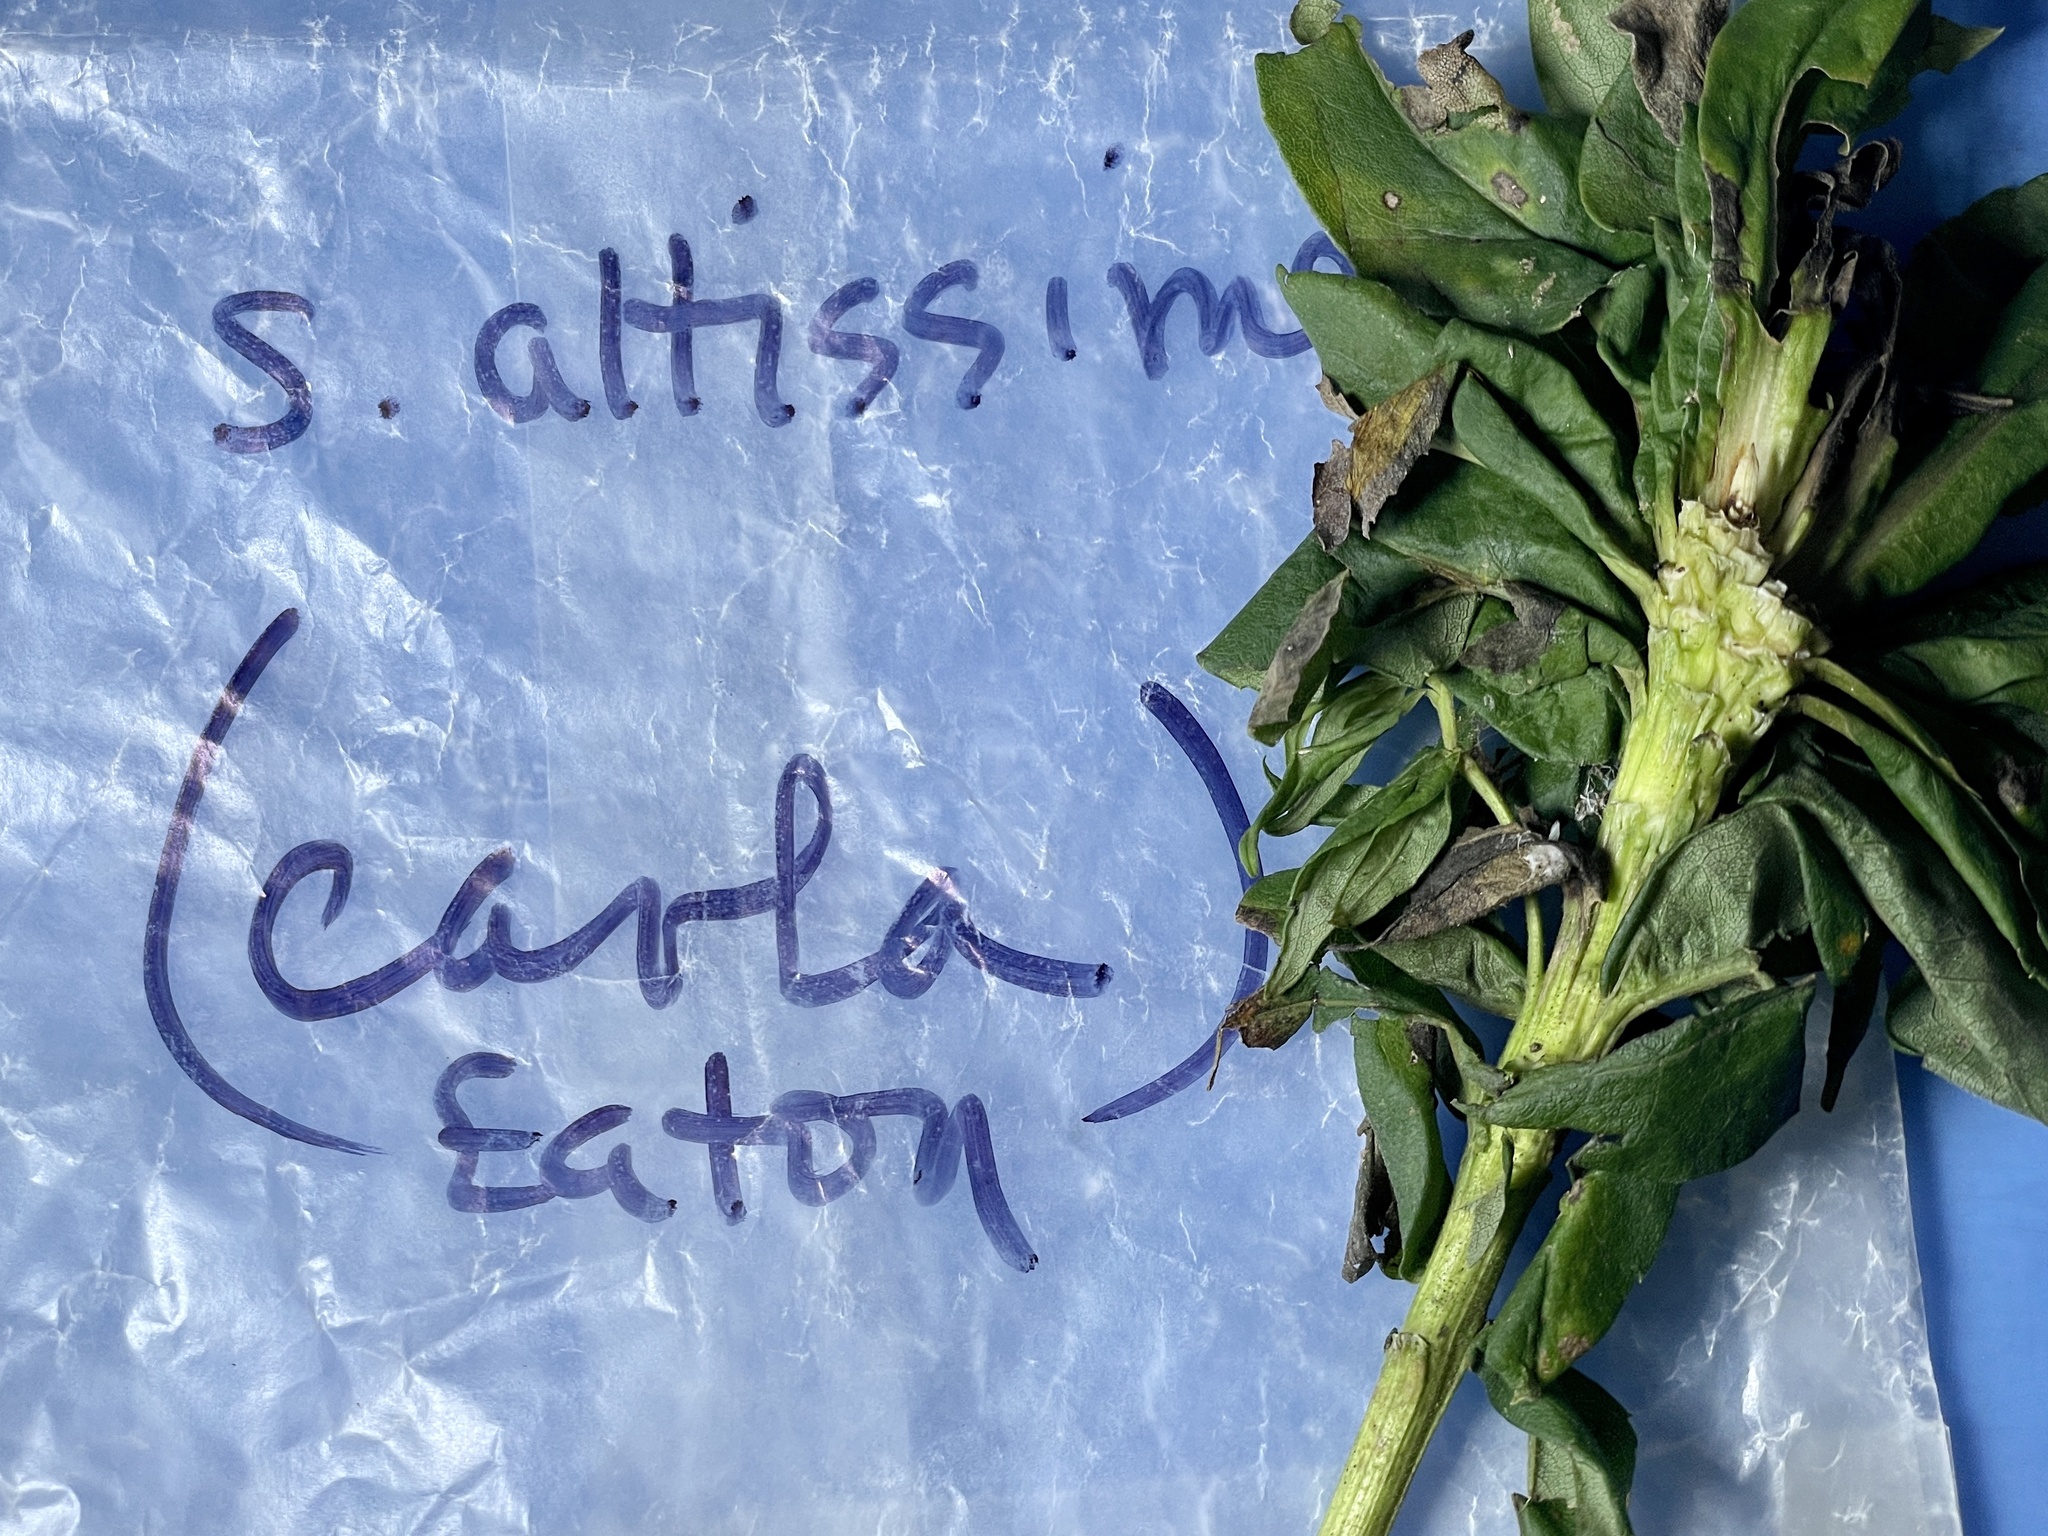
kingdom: Animalia
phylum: Arthropoda
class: Insecta
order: Diptera
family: Cecidomyiidae
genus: Rhopalomyia
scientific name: Rhopalomyia solidaginis
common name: Goldenrod bunch gall midge
